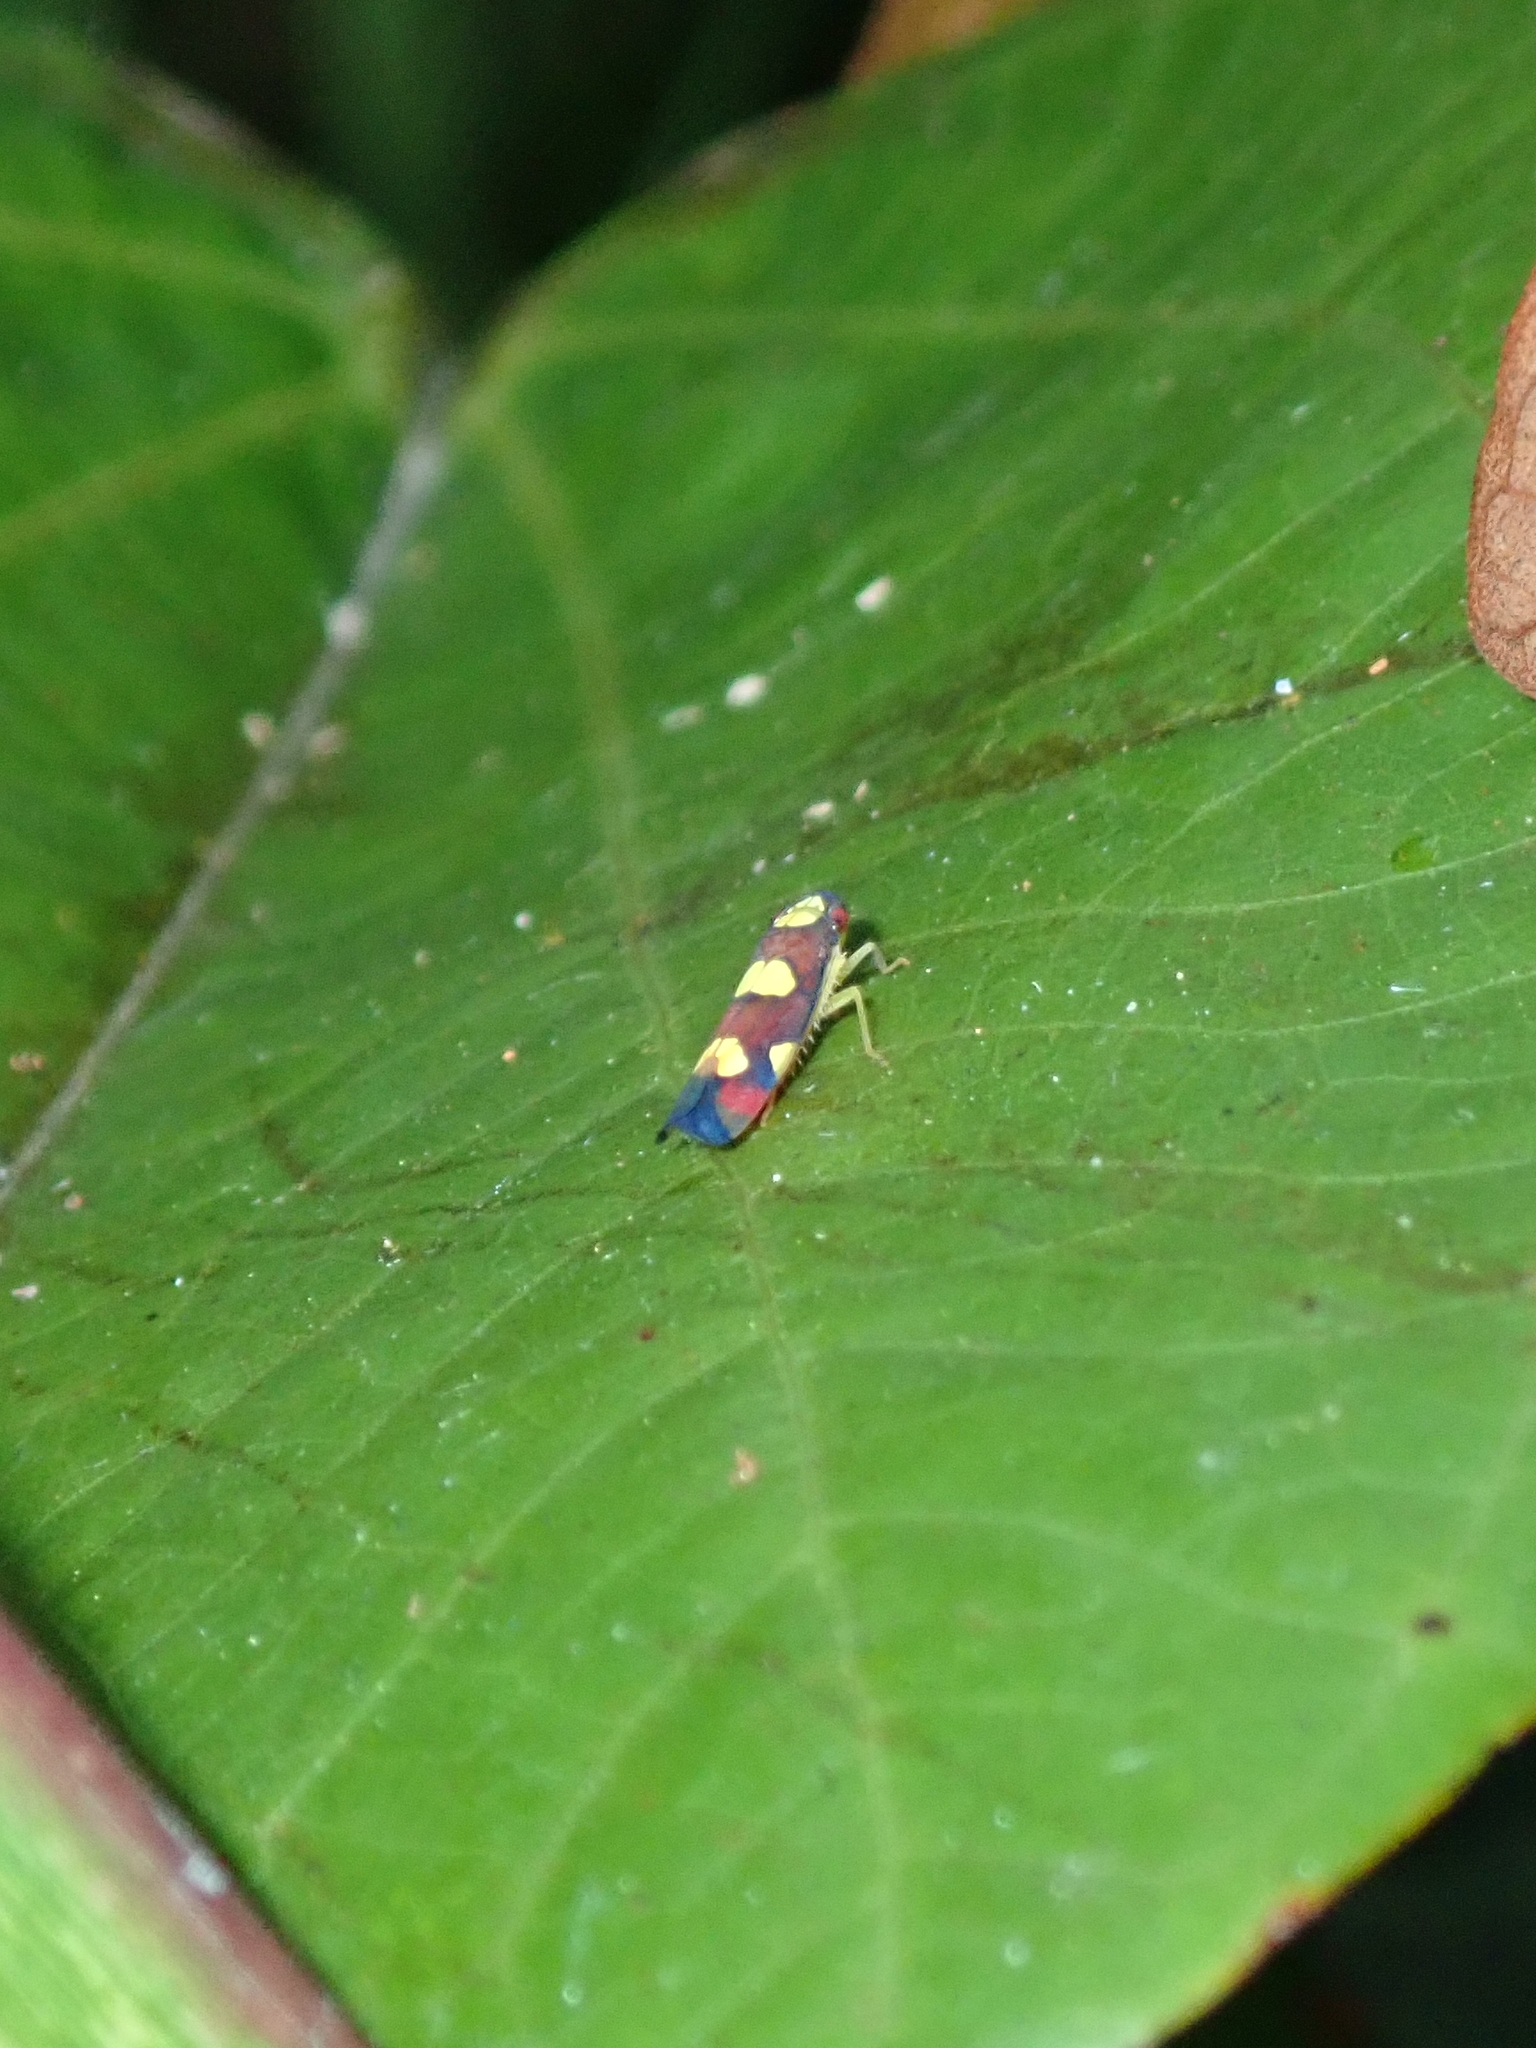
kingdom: Animalia
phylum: Arthropoda
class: Insecta
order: Hemiptera
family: Cicadellidae
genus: Erythrogonia
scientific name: Erythrogonia sexguttata
